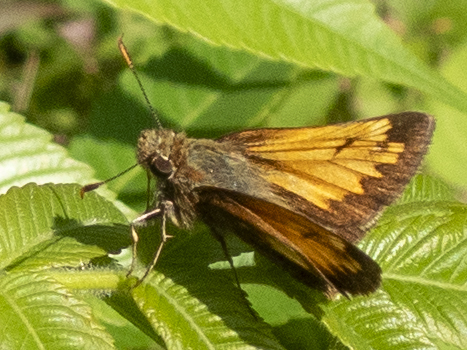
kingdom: Animalia
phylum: Arthropoda
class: Insecta
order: Lepidoptera
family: Hesperiidae
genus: Lon
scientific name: Lon hobomok
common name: Hobomok skipper
